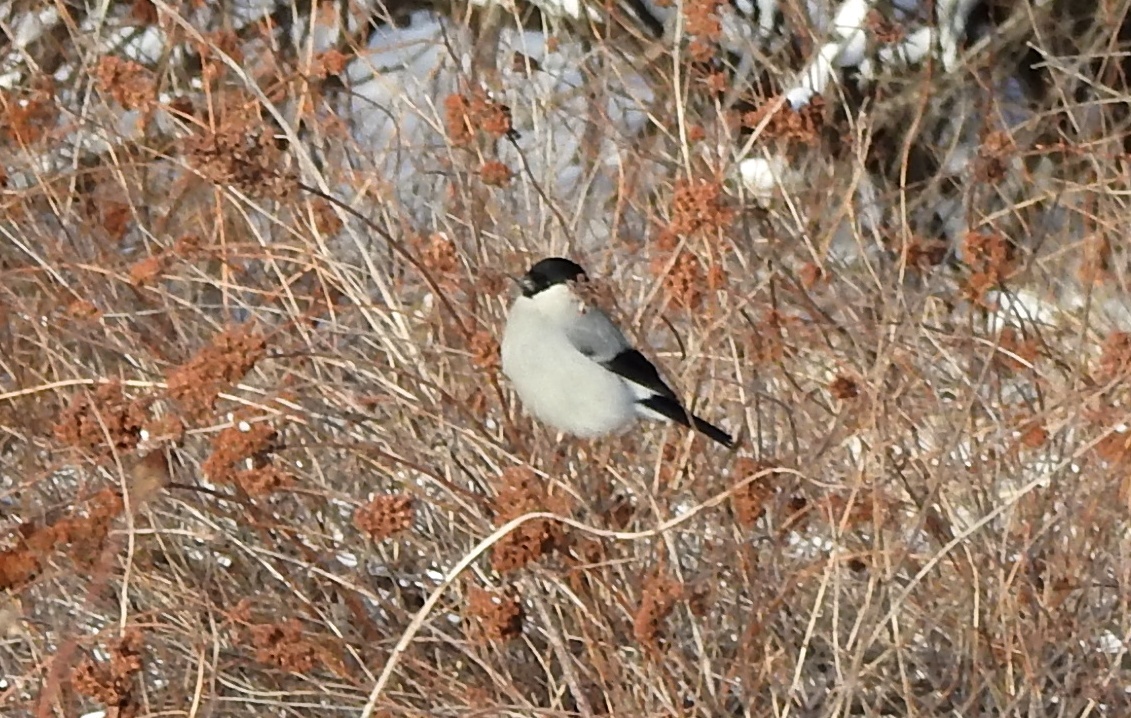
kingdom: Animalia
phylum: Chordata
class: Aves
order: Passeriformes
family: Fringillidae
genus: Pyrrhula
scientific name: Pyrrhula pyrrhula
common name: Eurasian bullfinch
